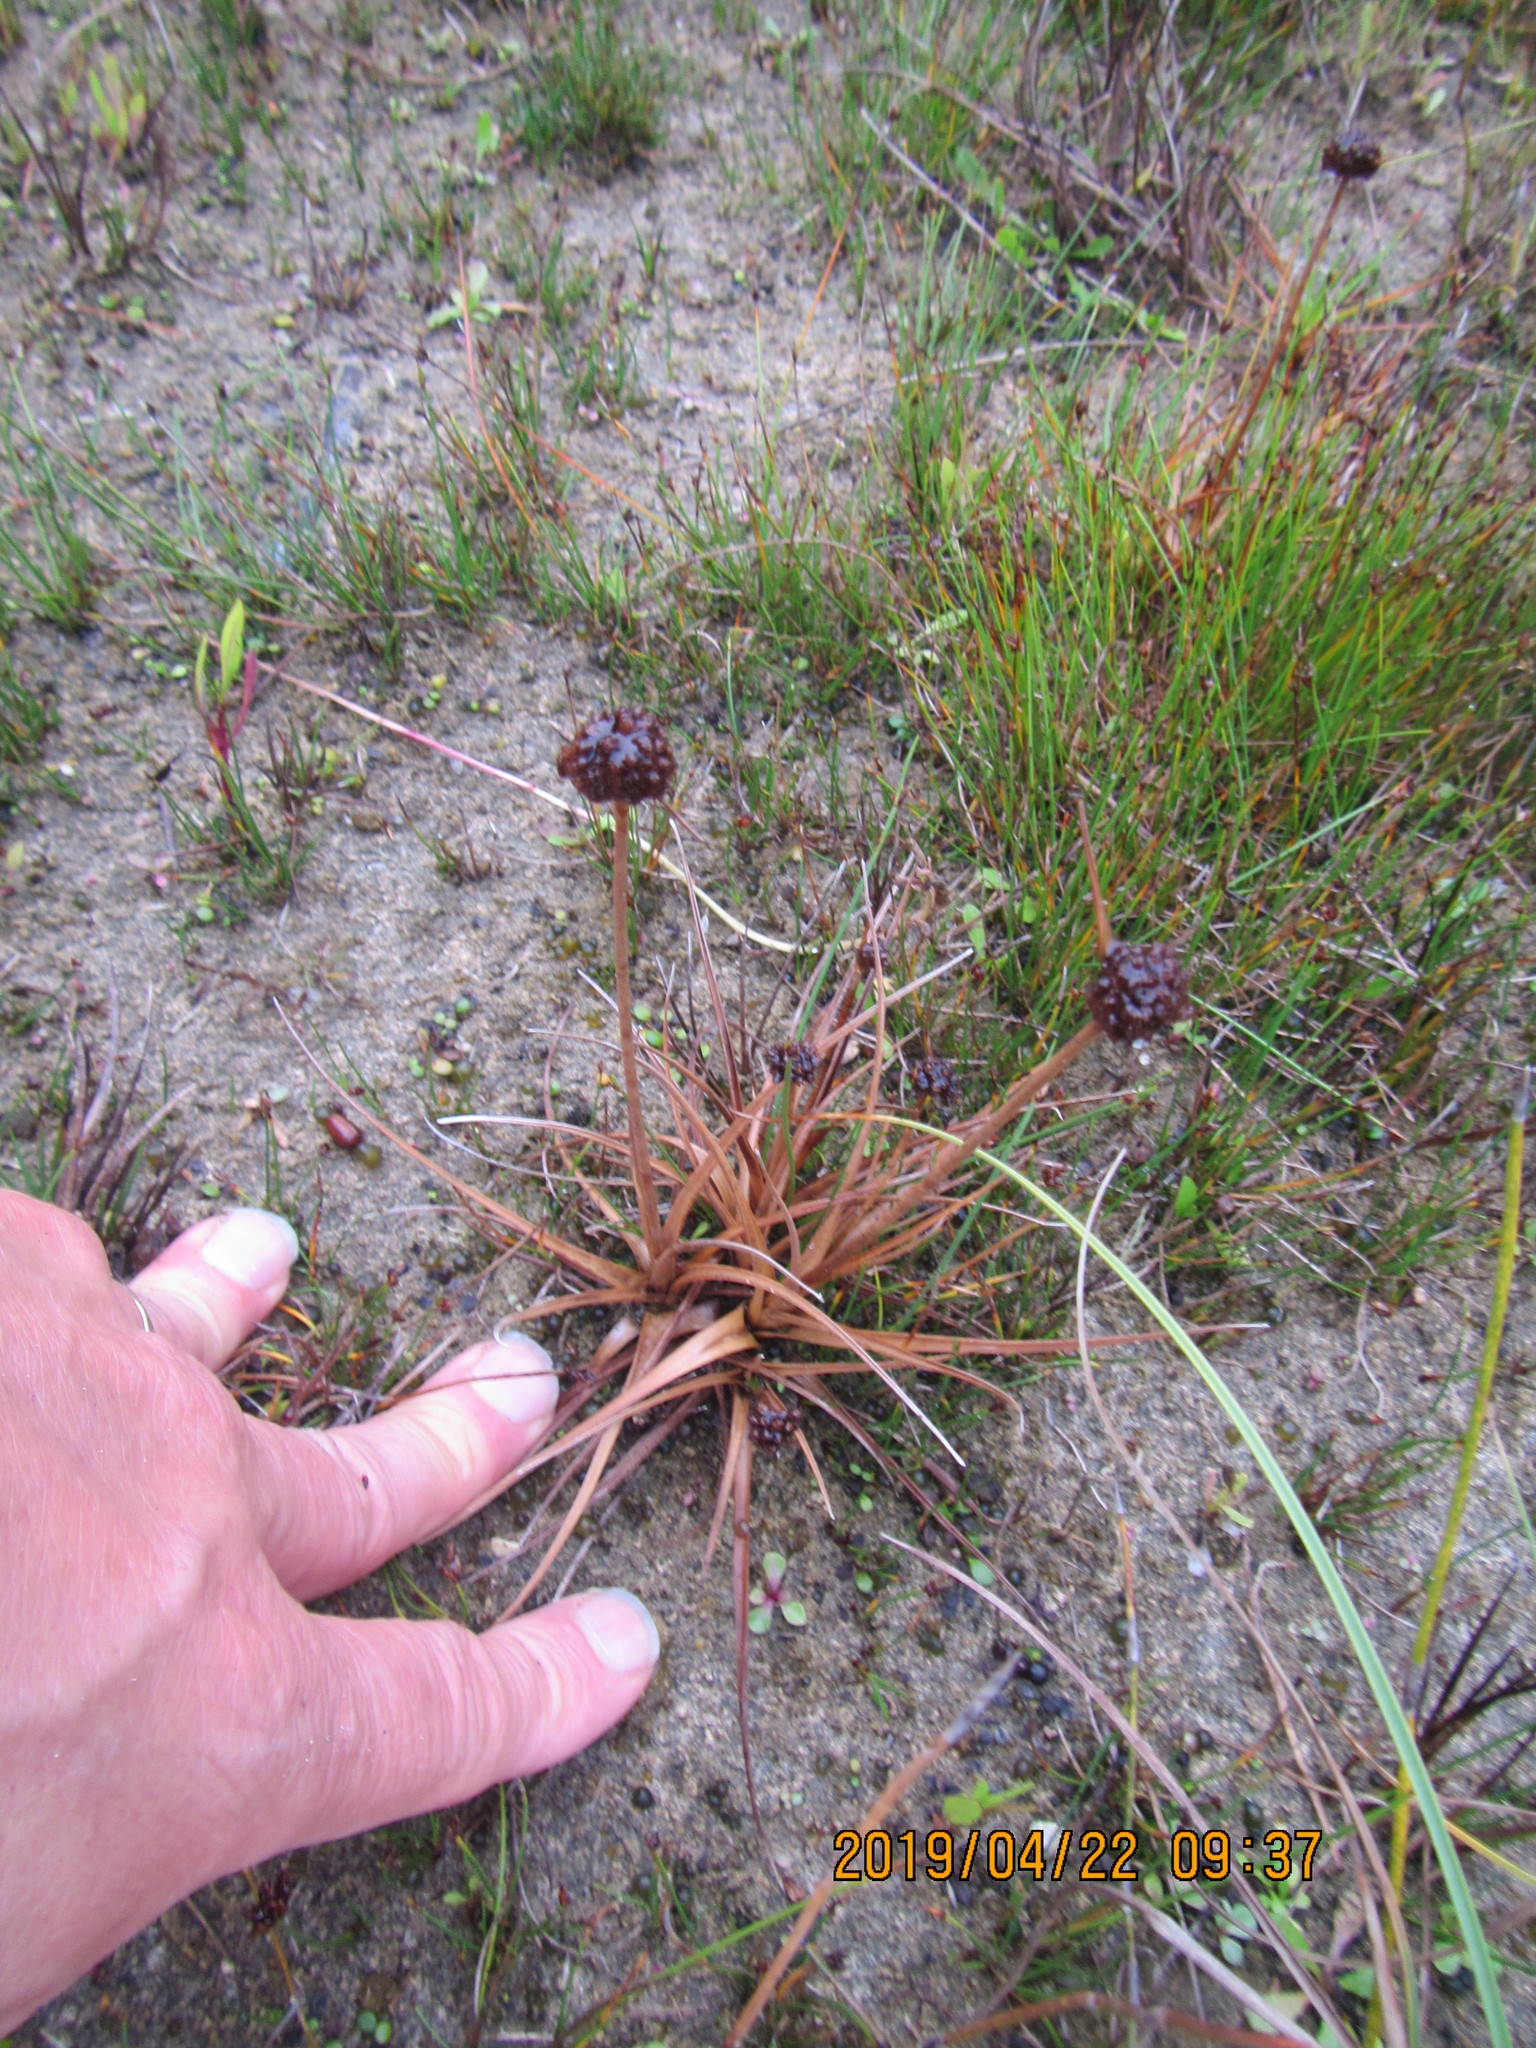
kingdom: Plantae
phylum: Tracheophyta
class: Liliopsida
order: Poales
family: Juncaceae
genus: Juncus
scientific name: Juncus caespiticius
